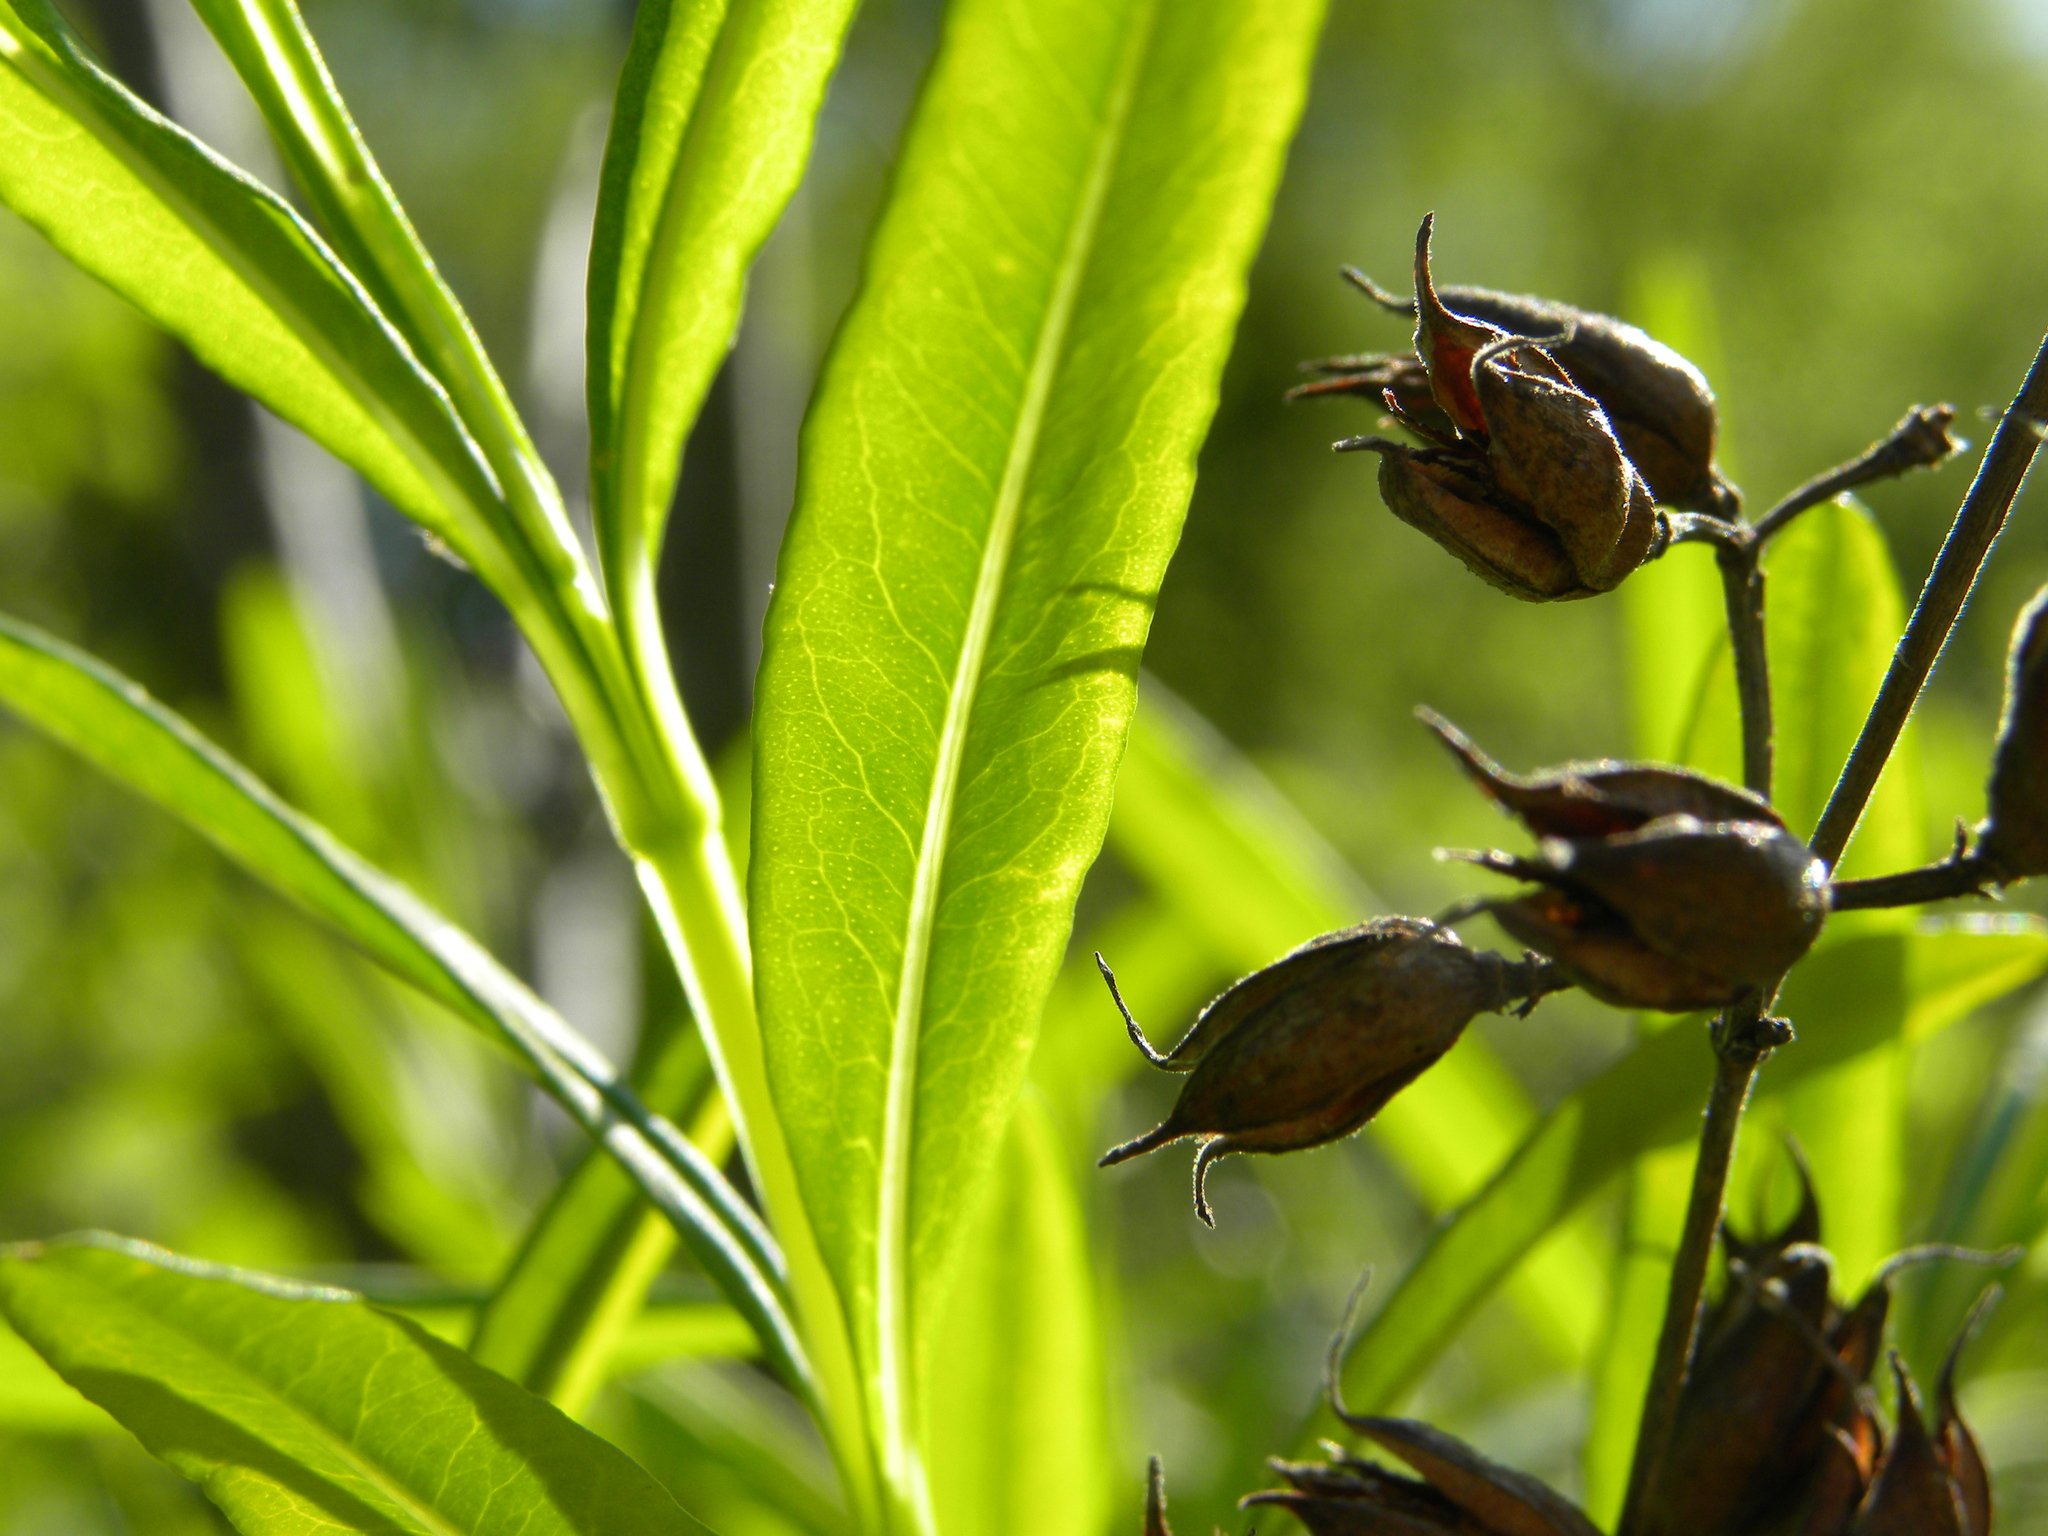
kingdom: Plantae
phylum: Tracheophyta
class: Magnoliopsida
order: Malpighiales
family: Hypericaceae
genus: Hypericum
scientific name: Hypericum prolificum
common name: Shrubby st. john's-wort
